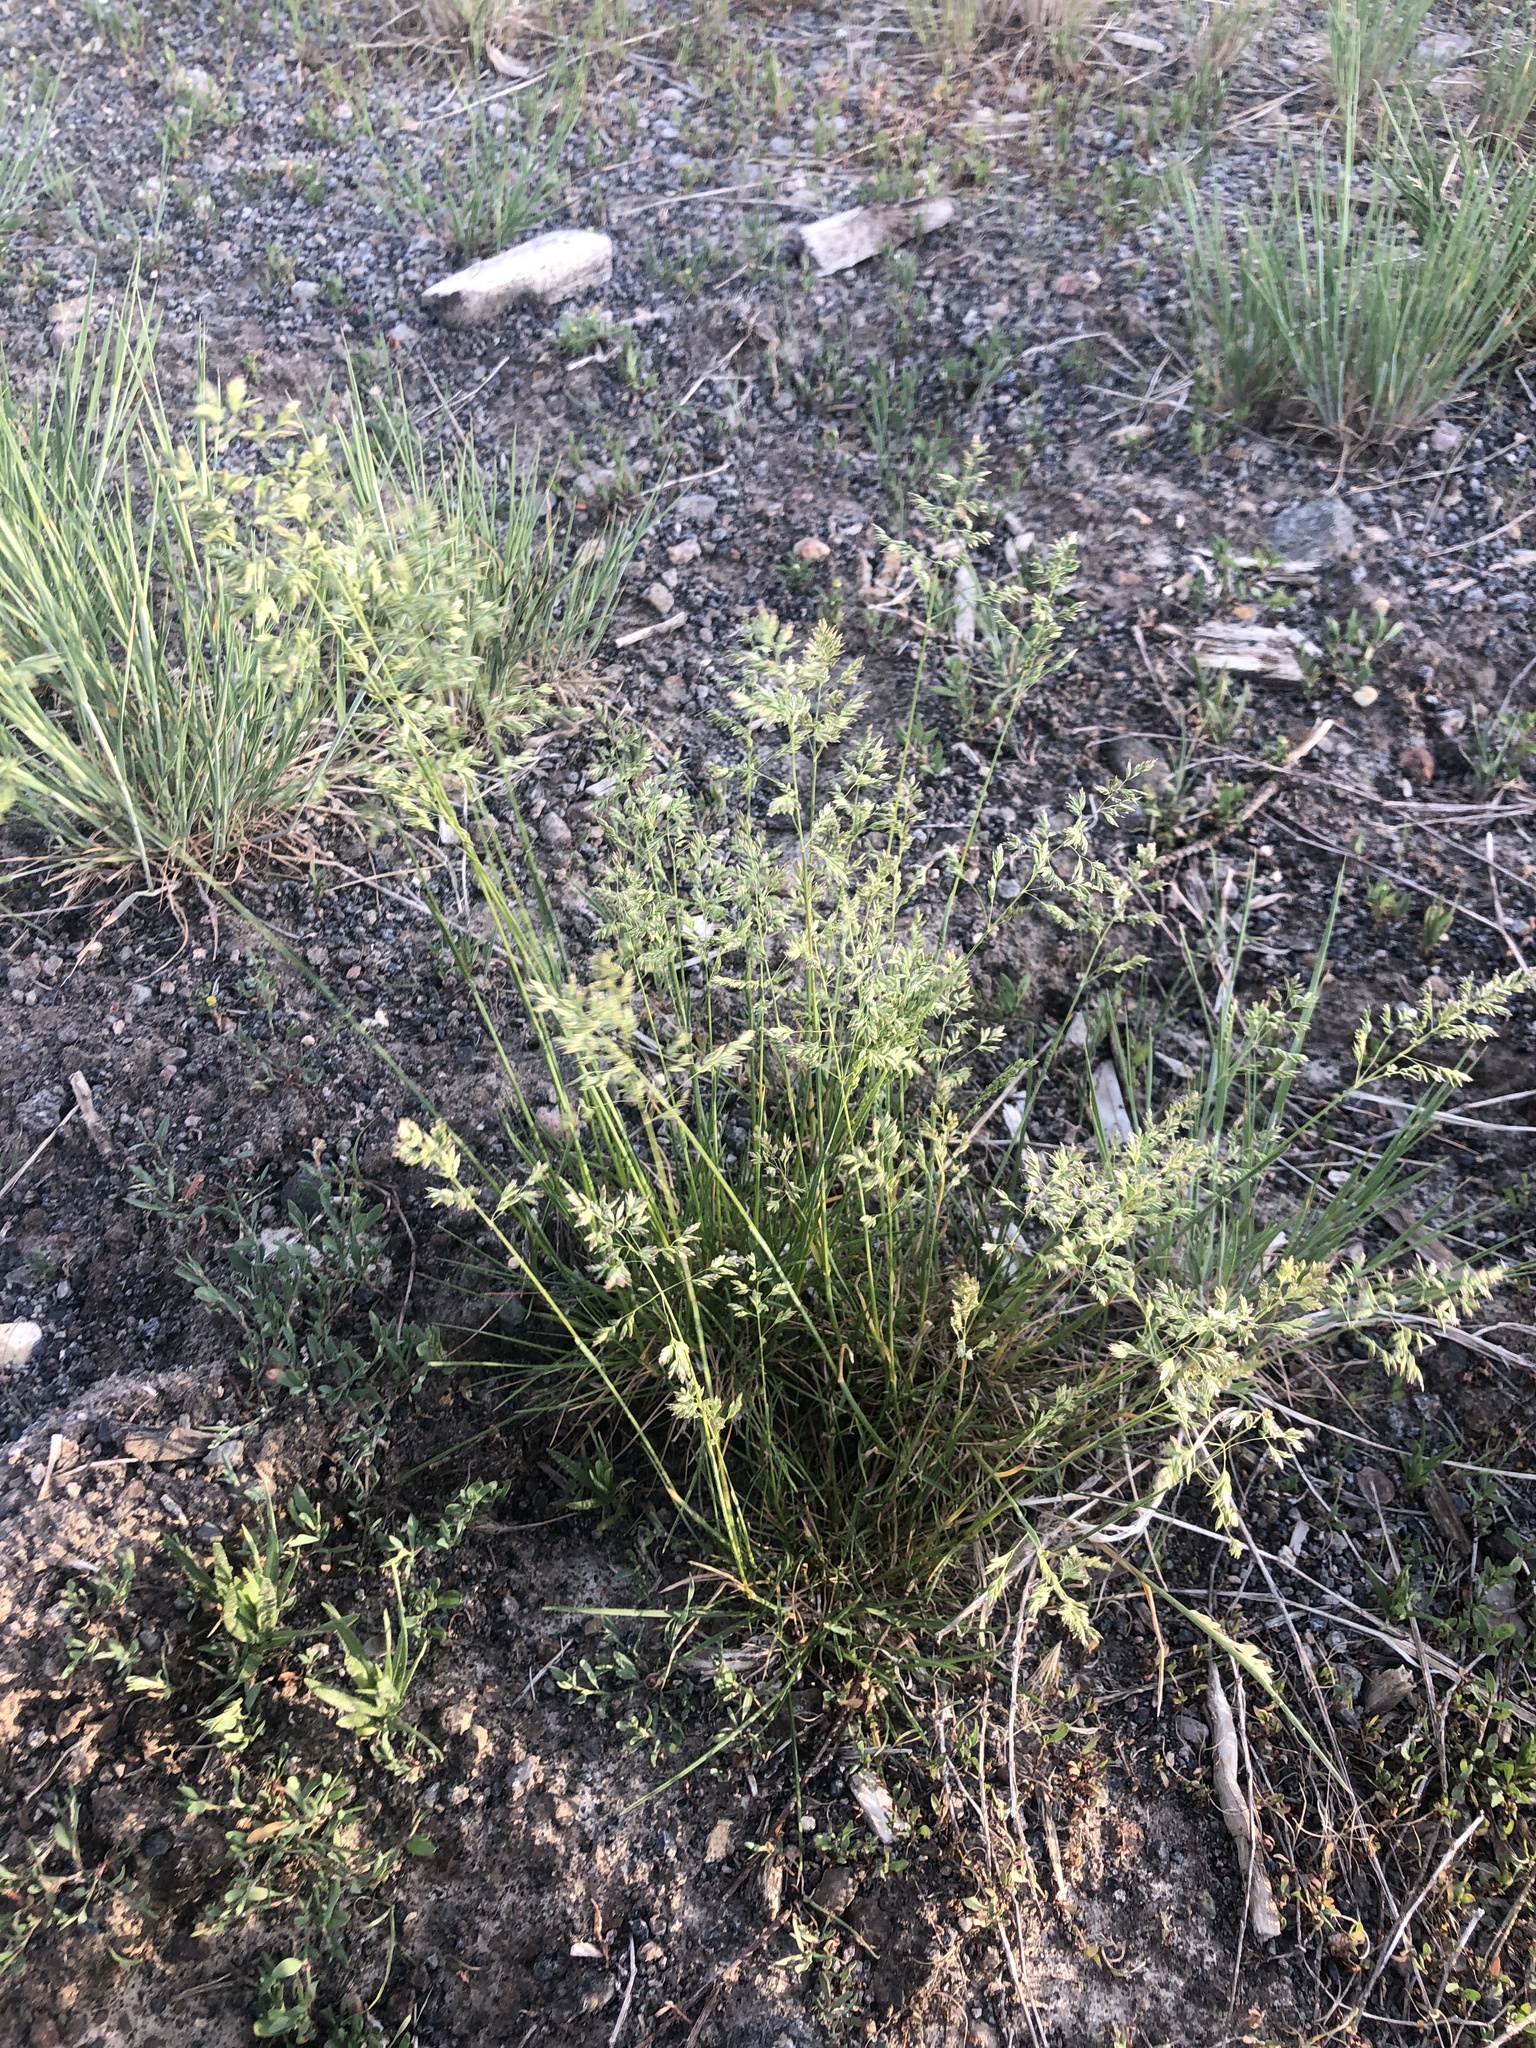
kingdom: Plantae
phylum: Tracheophyta
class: Liliopsida
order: Poales
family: Poaceae
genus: Poa
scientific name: Poa pratensis
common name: Kentucky bluegrass
